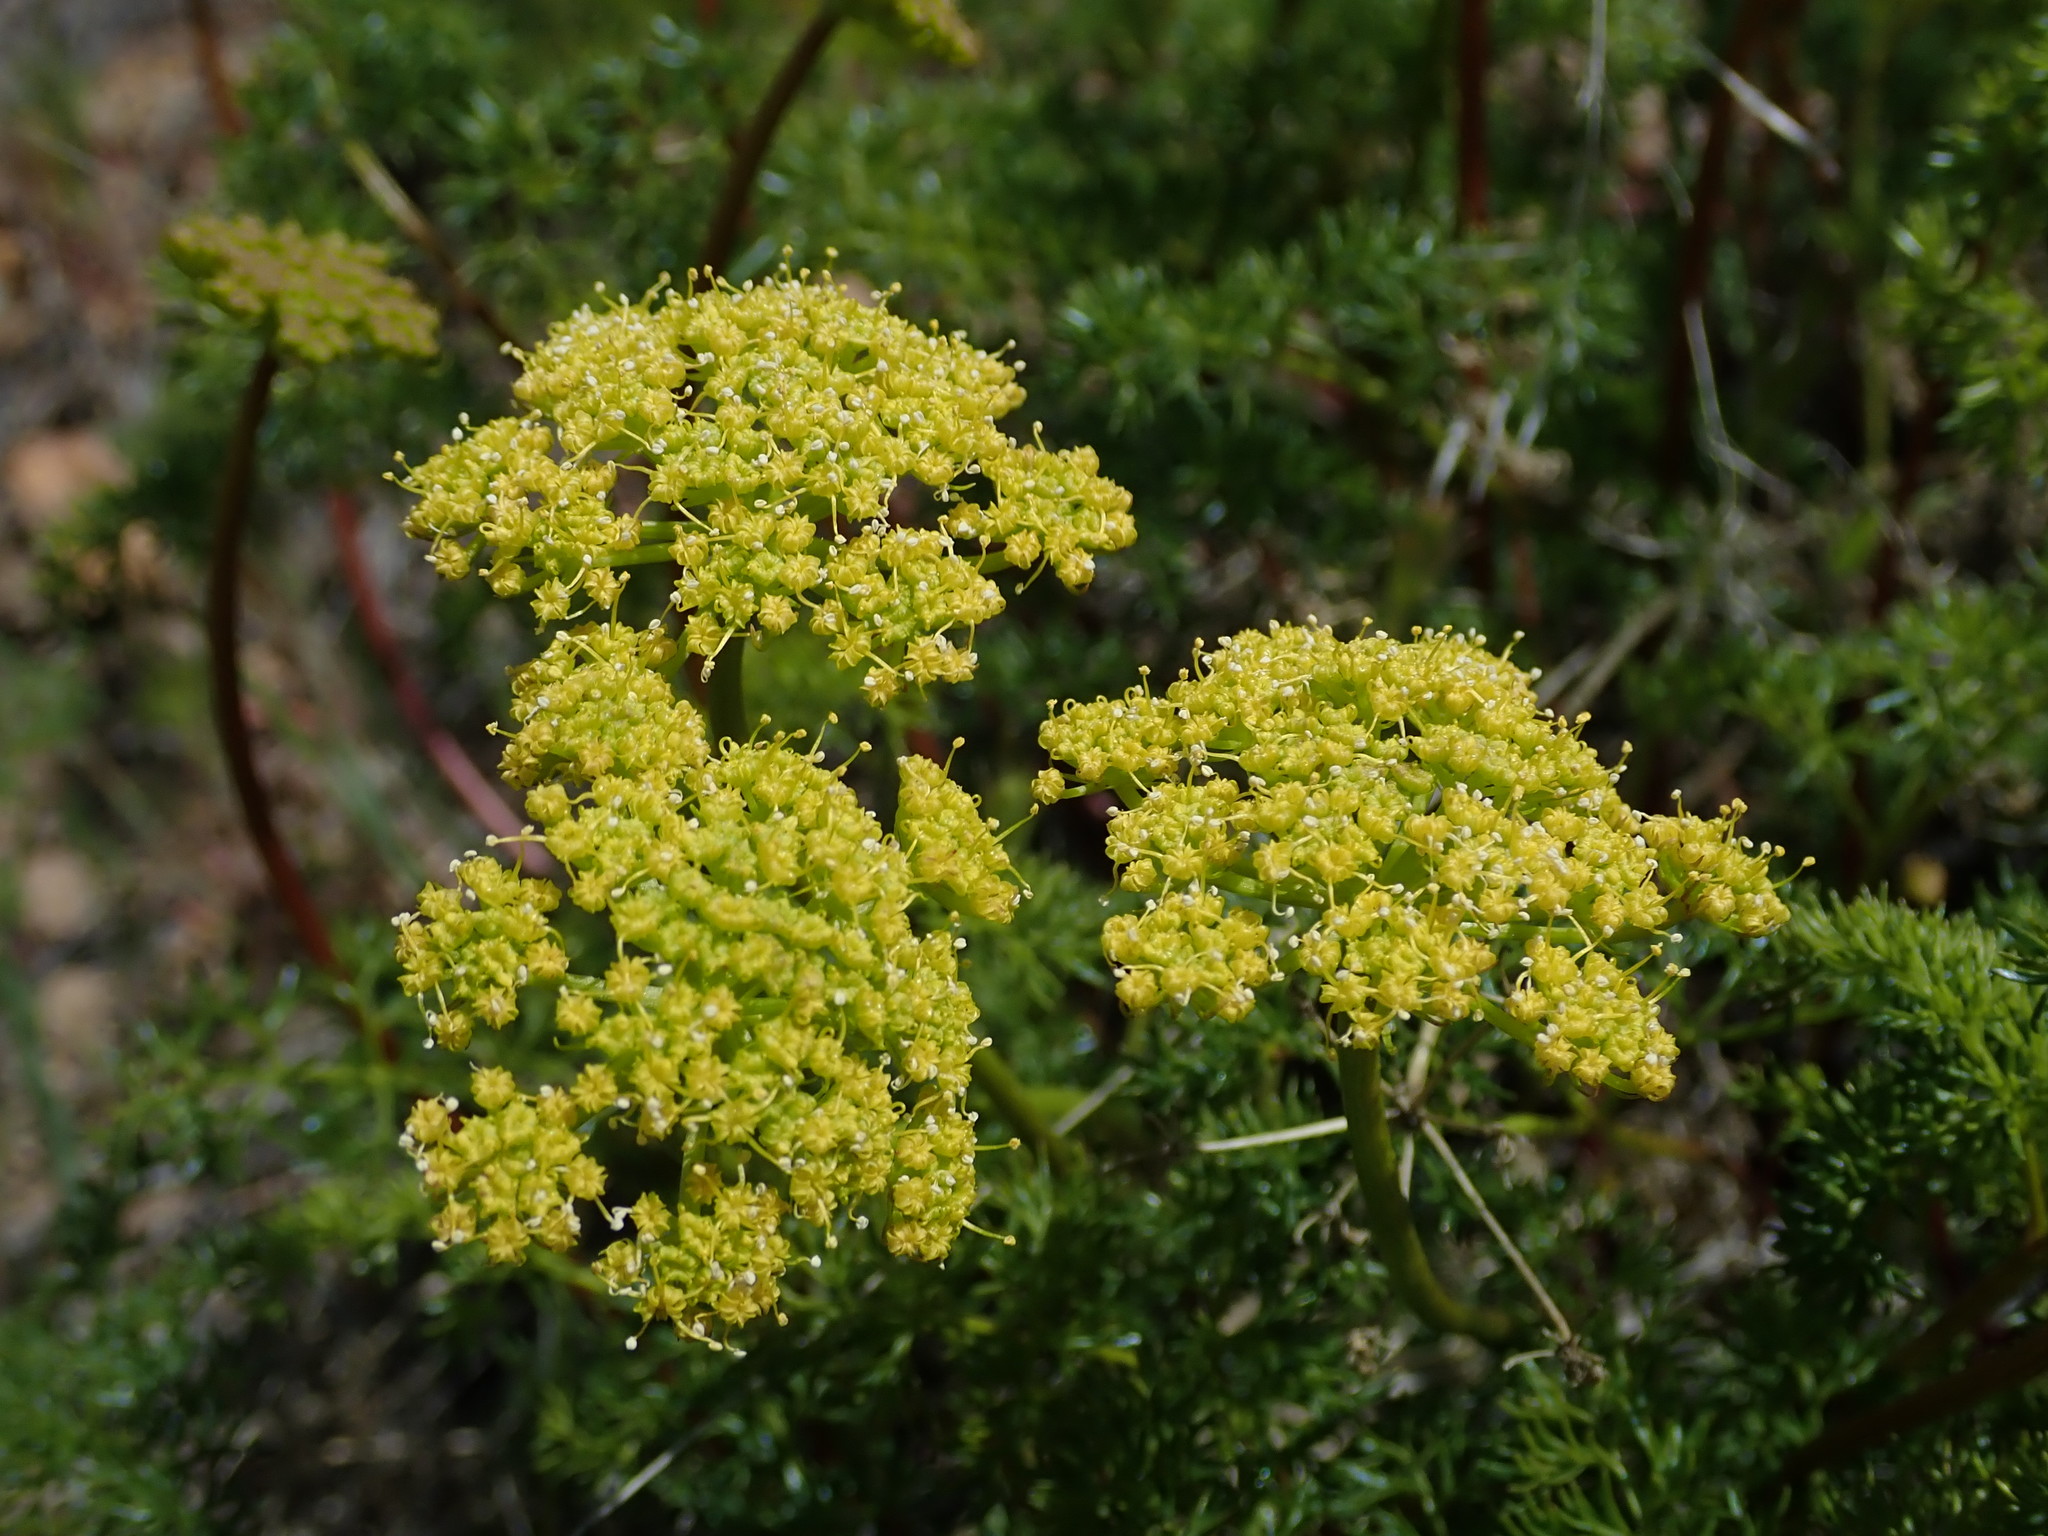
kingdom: Plantae
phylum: Tracheophyta
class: Magnoliopsida
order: Apiales
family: Apiaceae
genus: Pteryxia
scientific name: Pteryxia terebinthina
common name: Turpentine wavewing
